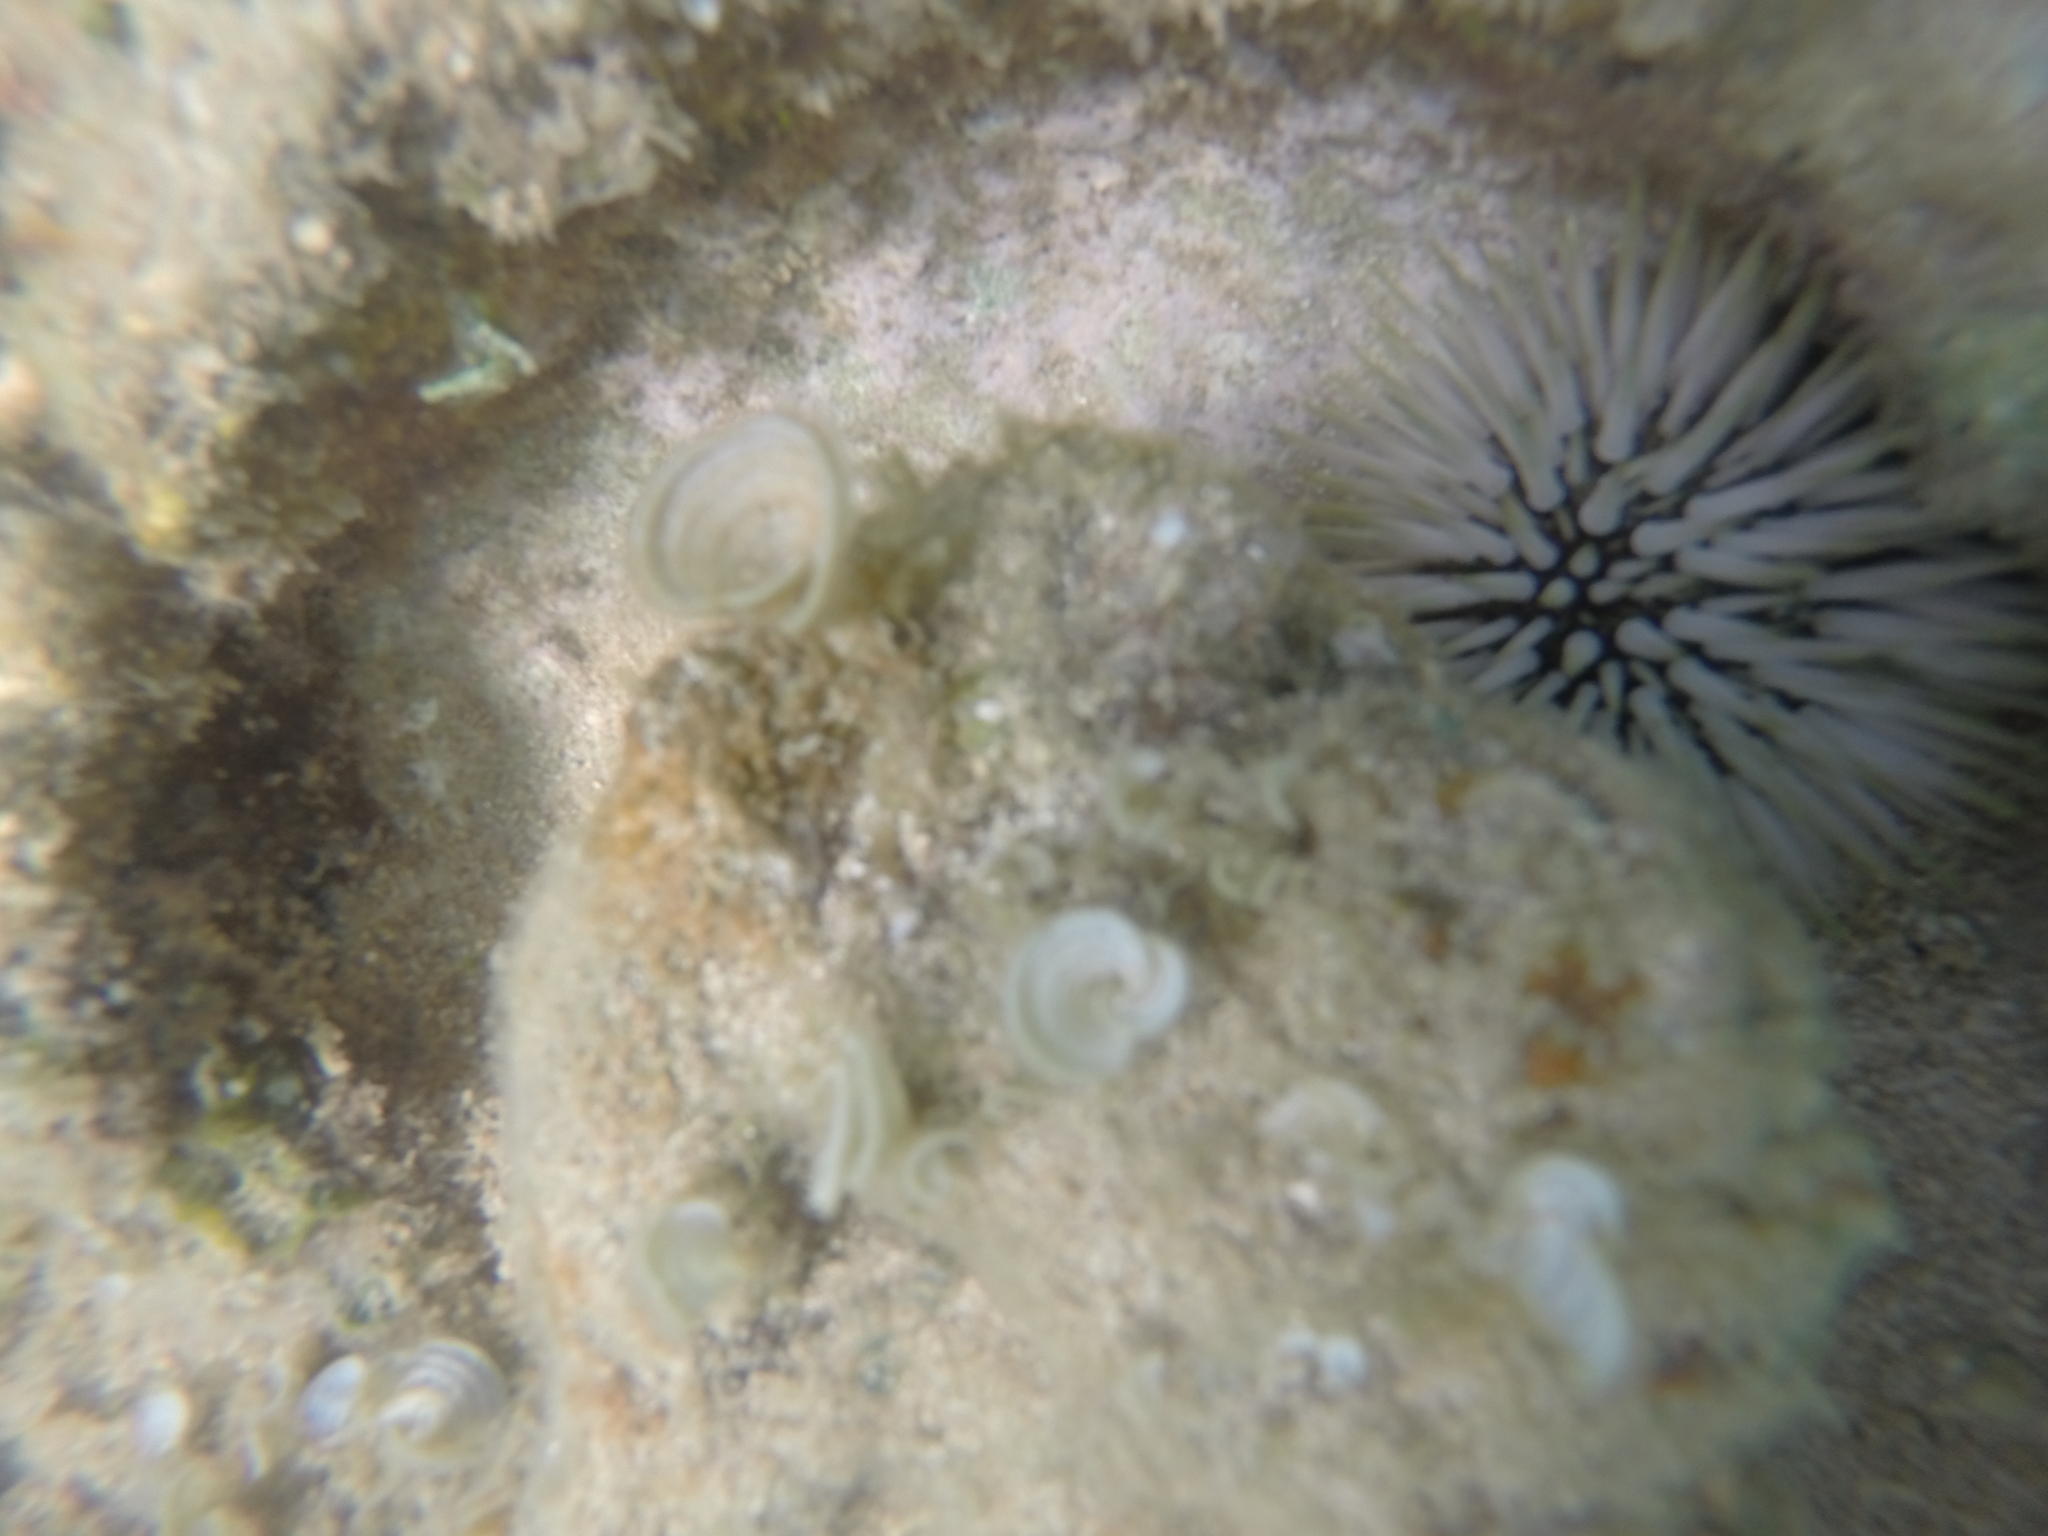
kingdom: Animalia
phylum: Echinodermata
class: Echinoidea
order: Camarodonta
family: Echinometridae
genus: Echinometra
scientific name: Echinometra mathaei
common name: Rock-boring urchin
